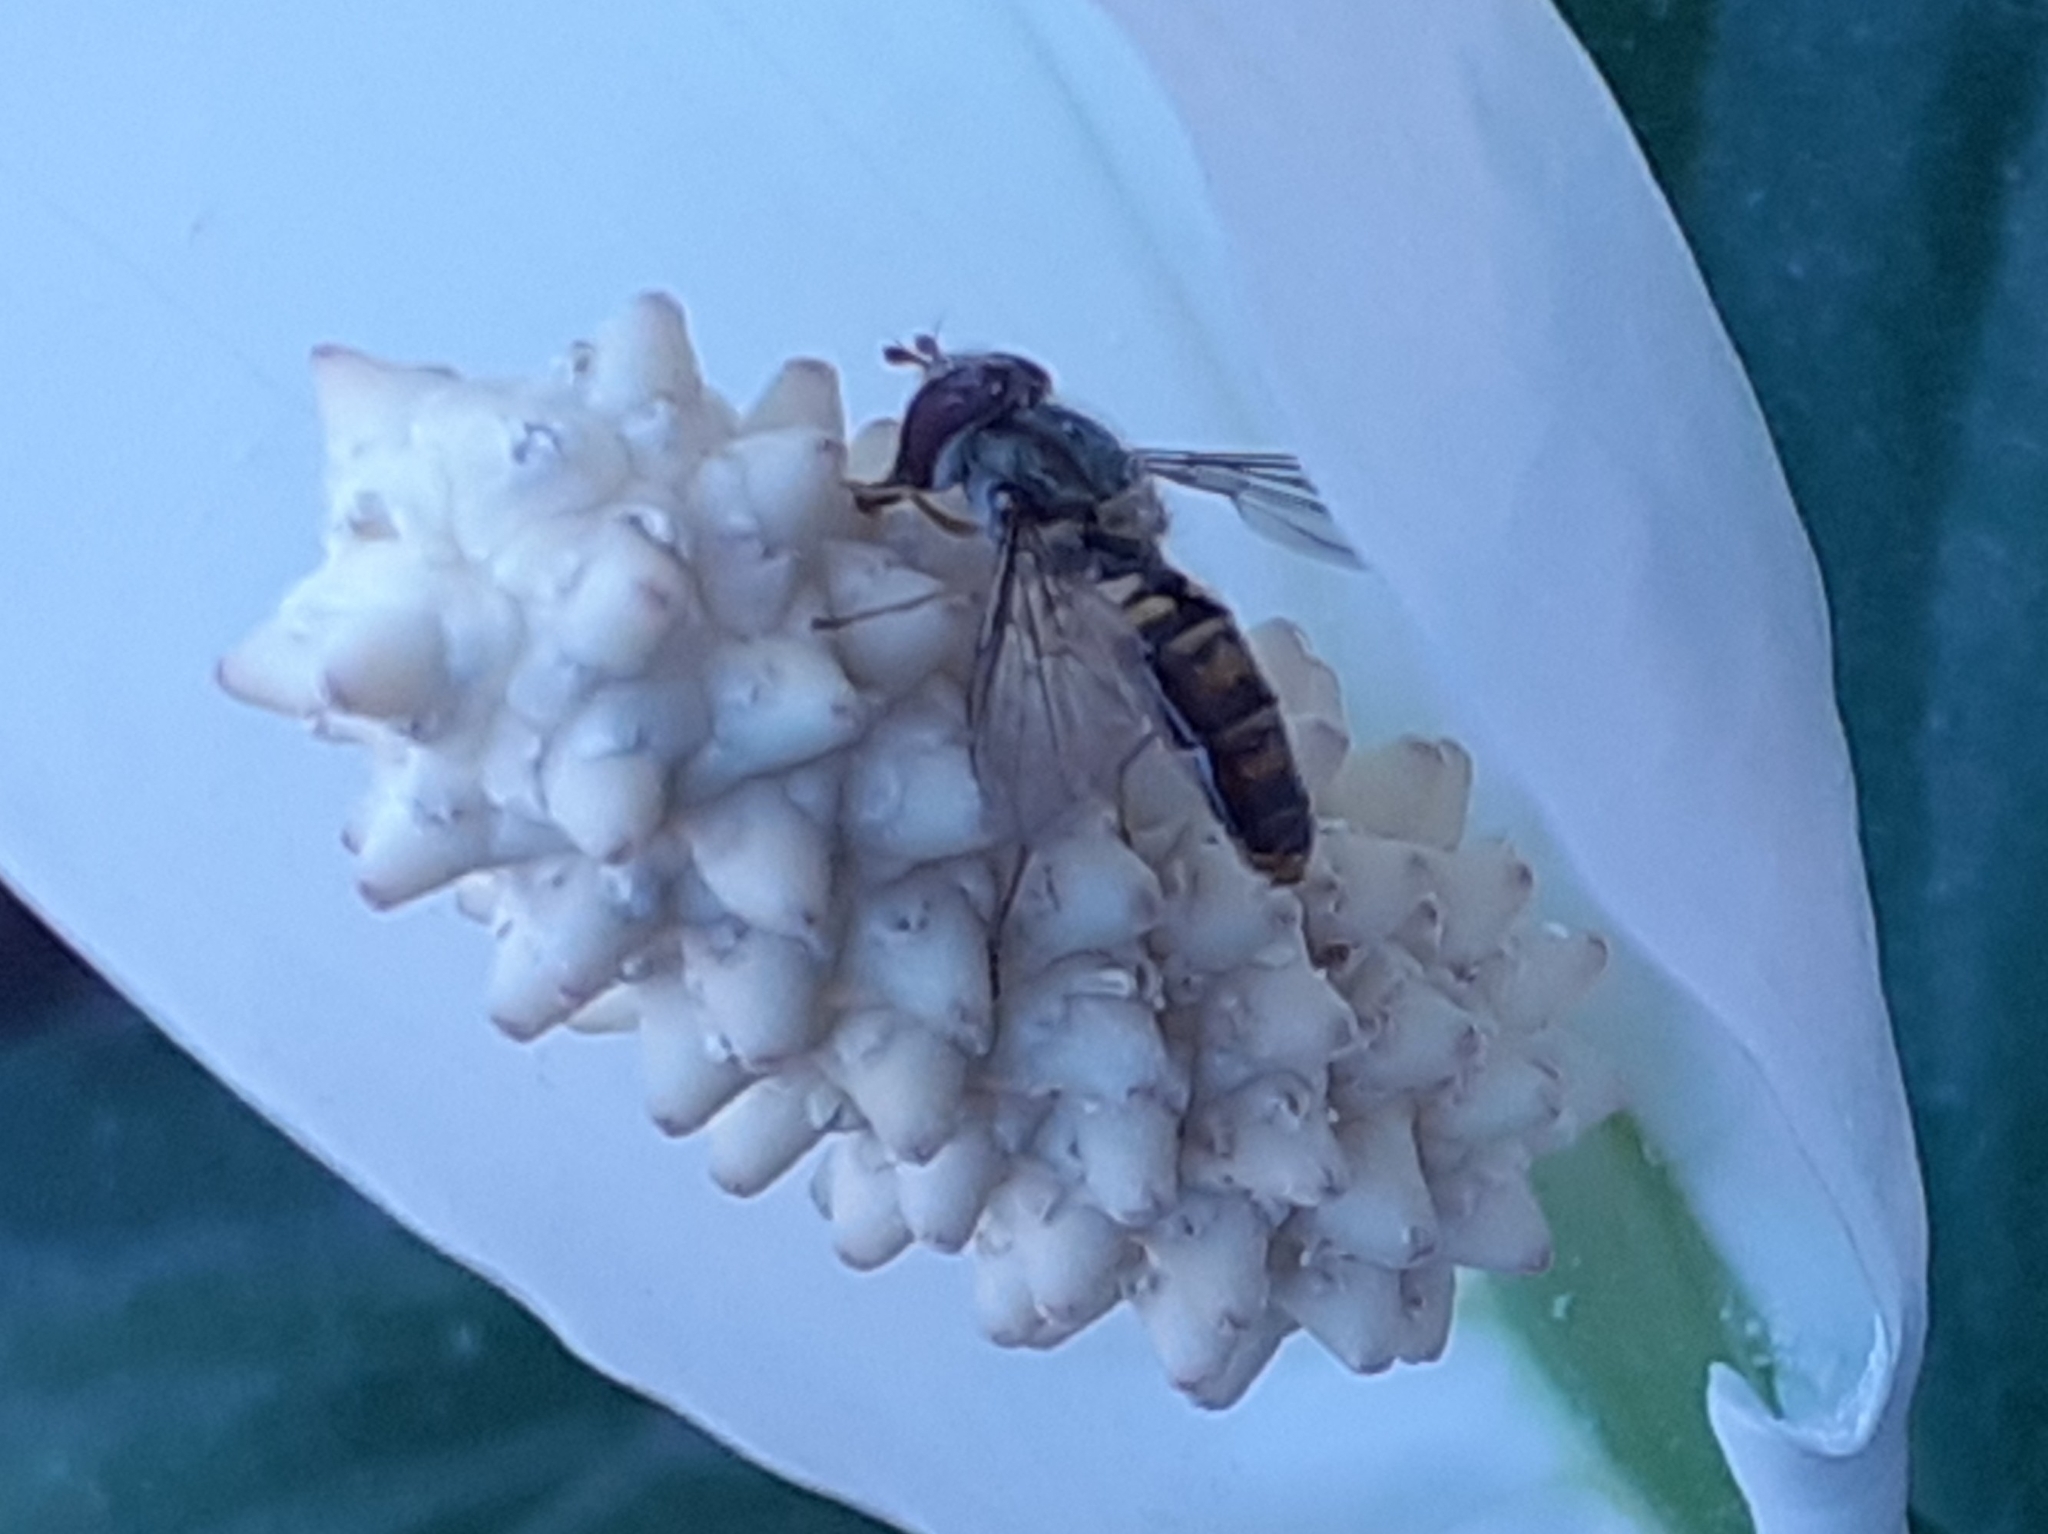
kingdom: Animalia
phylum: Arthropoda
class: Insecta
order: Diptera
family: Syrphidae
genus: Episyrphus
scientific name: Episyrphus balteatus
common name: Marmalade hoverfly
